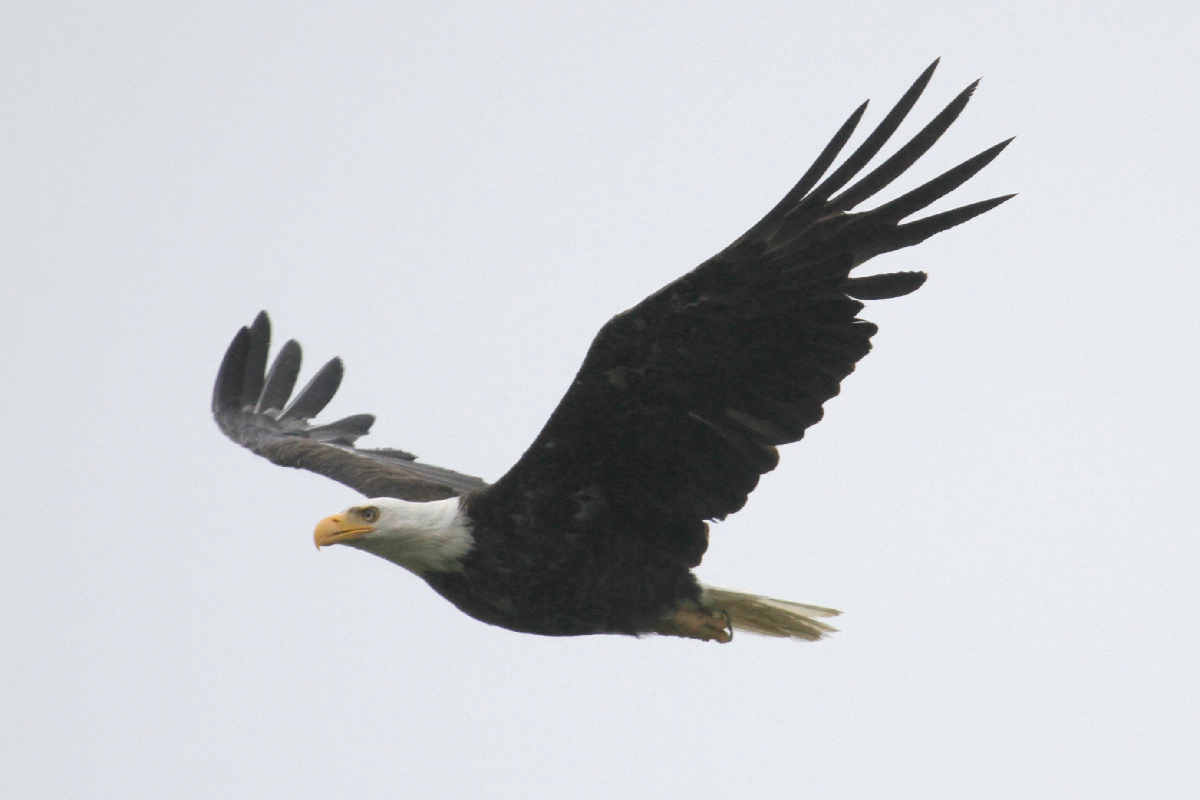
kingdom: Animalia
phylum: Chordata
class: Aves
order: Accipitriformes
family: Accipitridae
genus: Haliaeetus
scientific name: Haliaeetus leucocephalus
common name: Bald eagle
